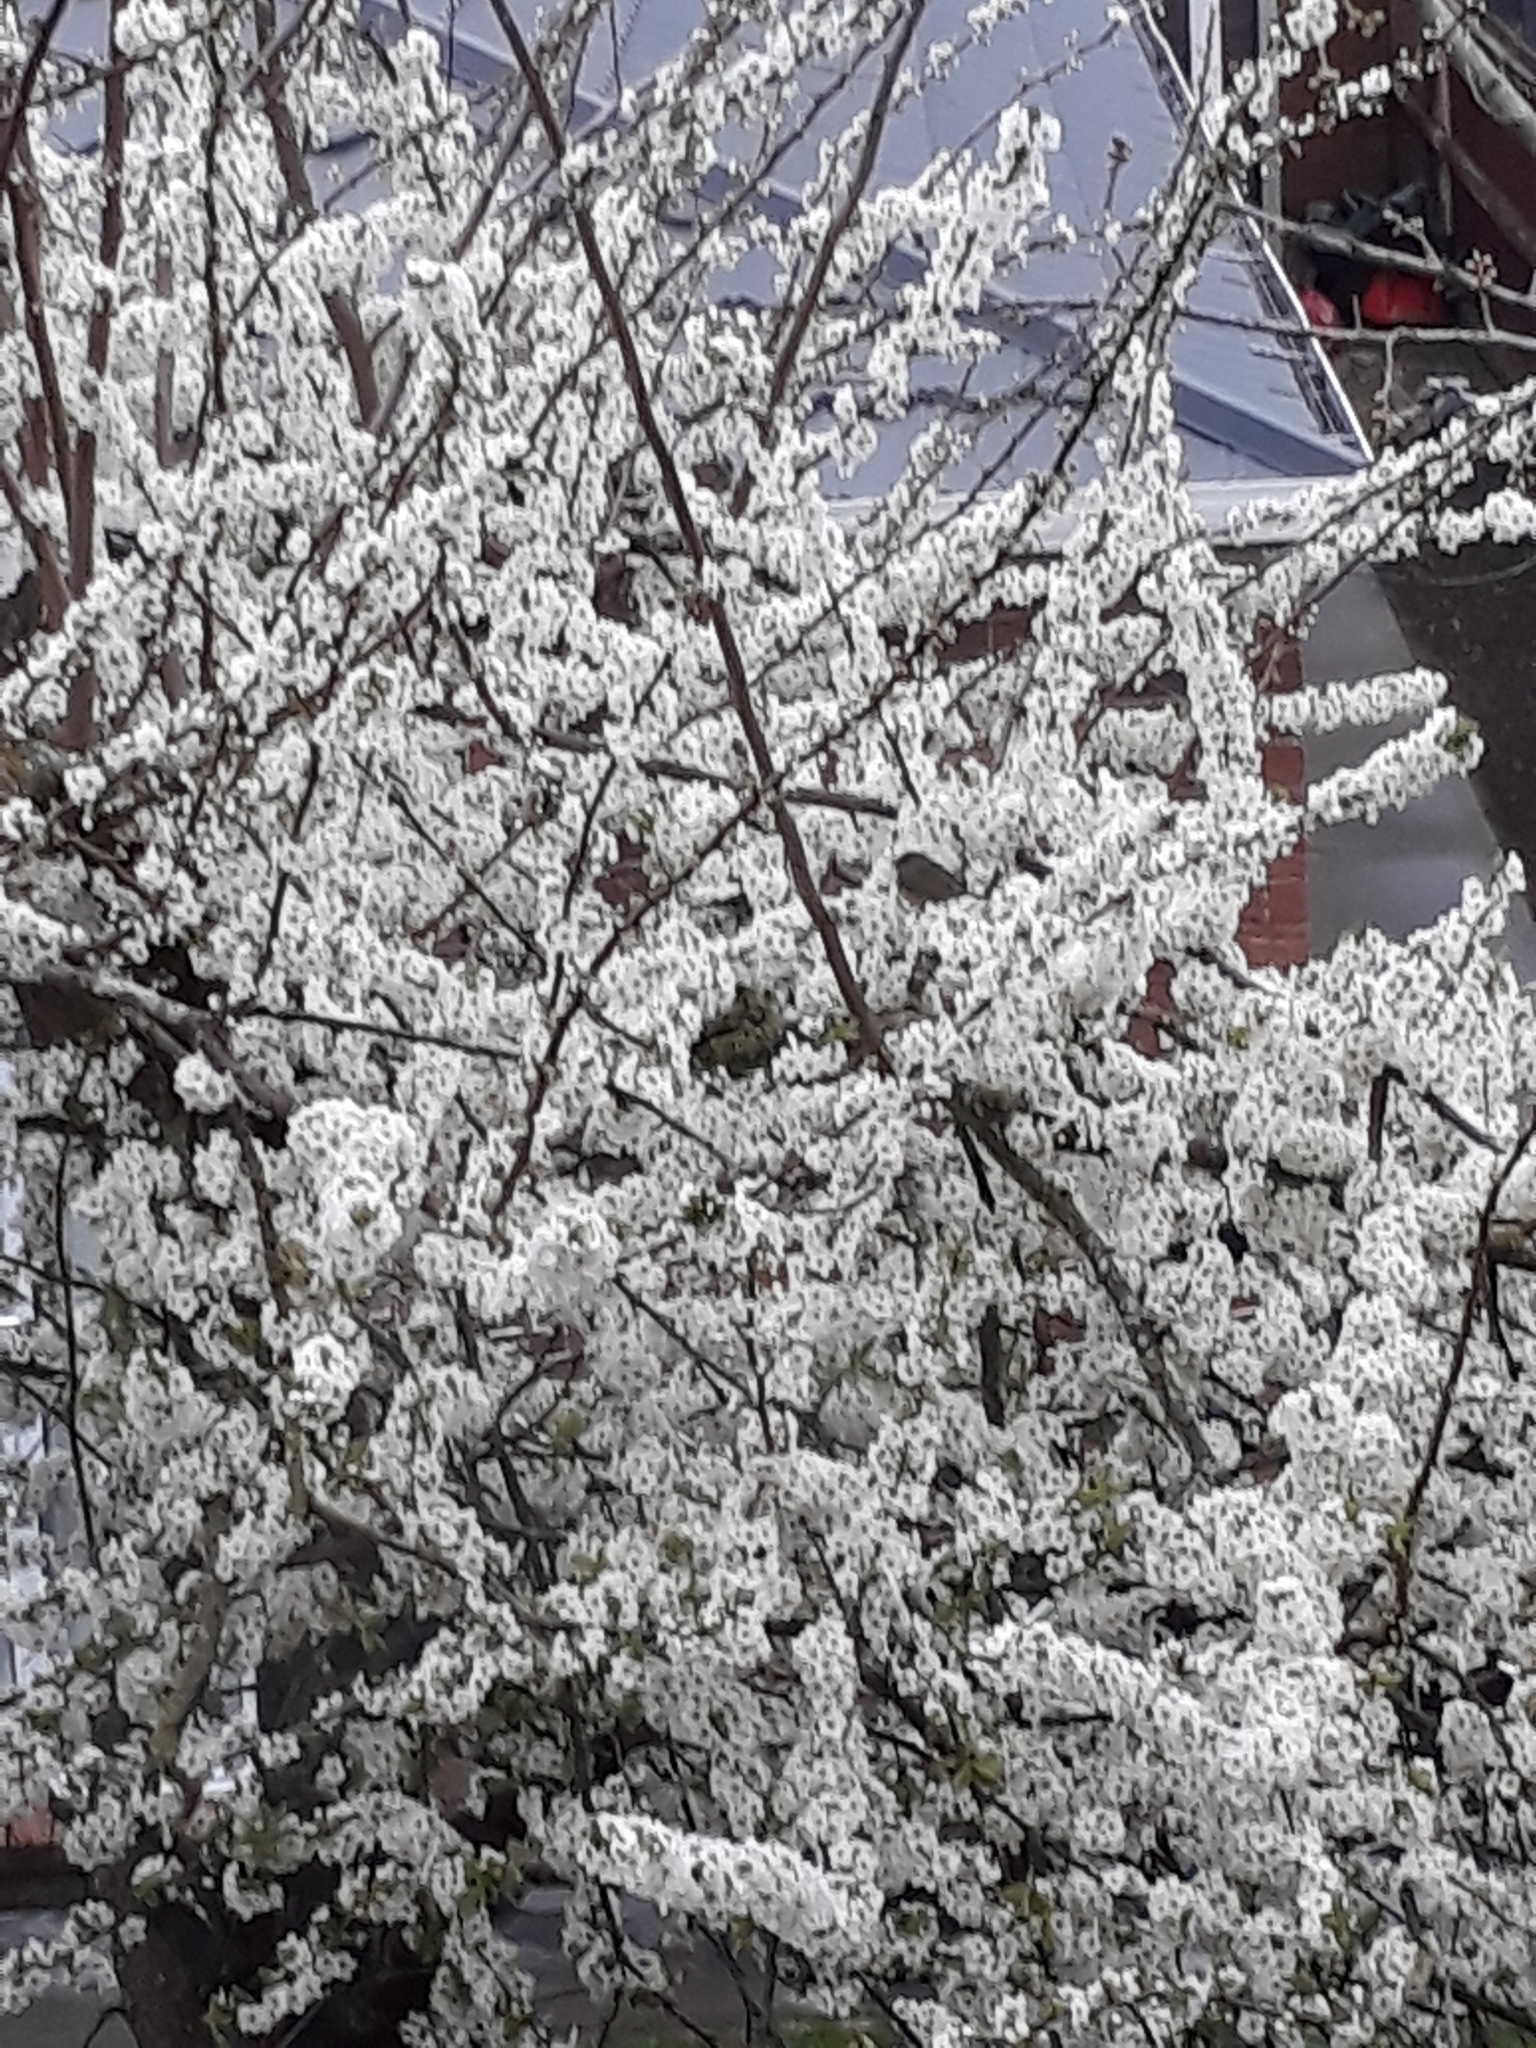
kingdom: Animalia
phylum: Chordata
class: Aves
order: Passeriformes
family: Zosteropidae
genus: Zosterops
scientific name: Zosterops lateralis
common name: Silvereye
